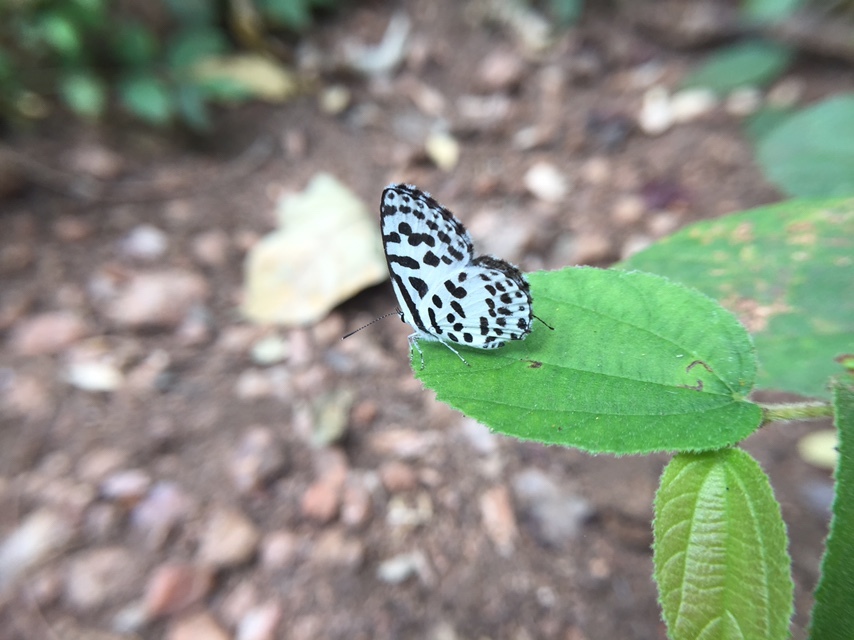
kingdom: Animalia
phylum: Arthropoda
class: Insecta
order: Lepidoptera
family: Lycaenidae
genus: Castalius
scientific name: Castalius rosimon
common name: Common pierrot
